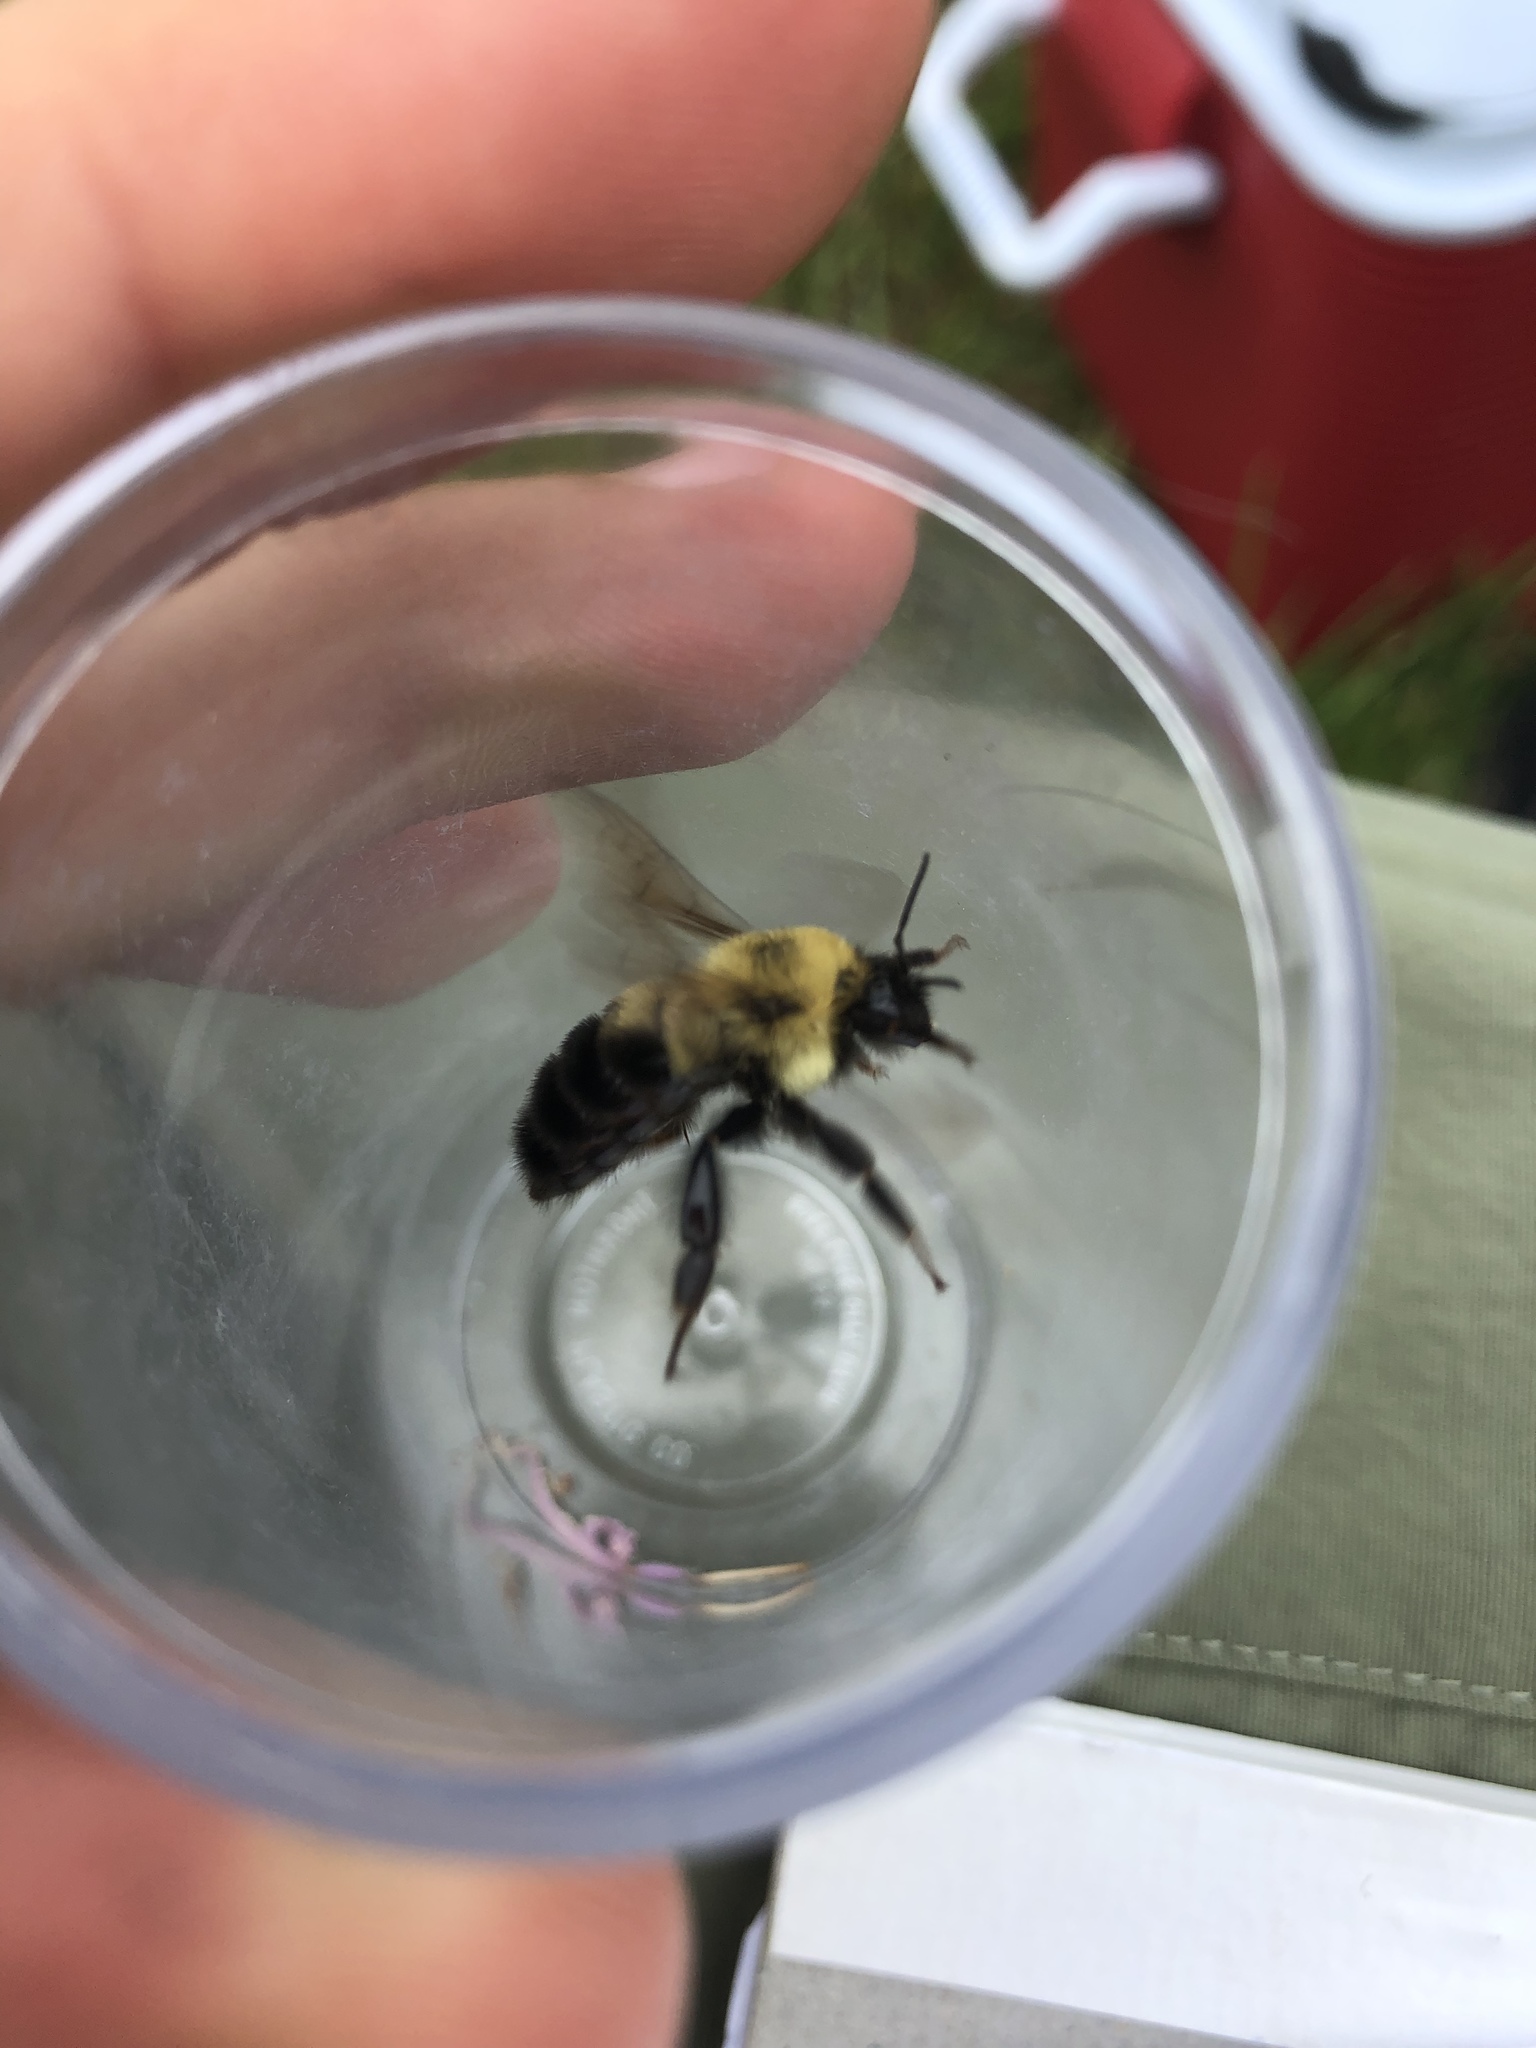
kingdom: Animalia
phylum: Arthropoda
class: Insecta
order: Hymenoptera
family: Apidae
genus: Bombus
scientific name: Bombus bimaculatus
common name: Two-spotted bumble bee
